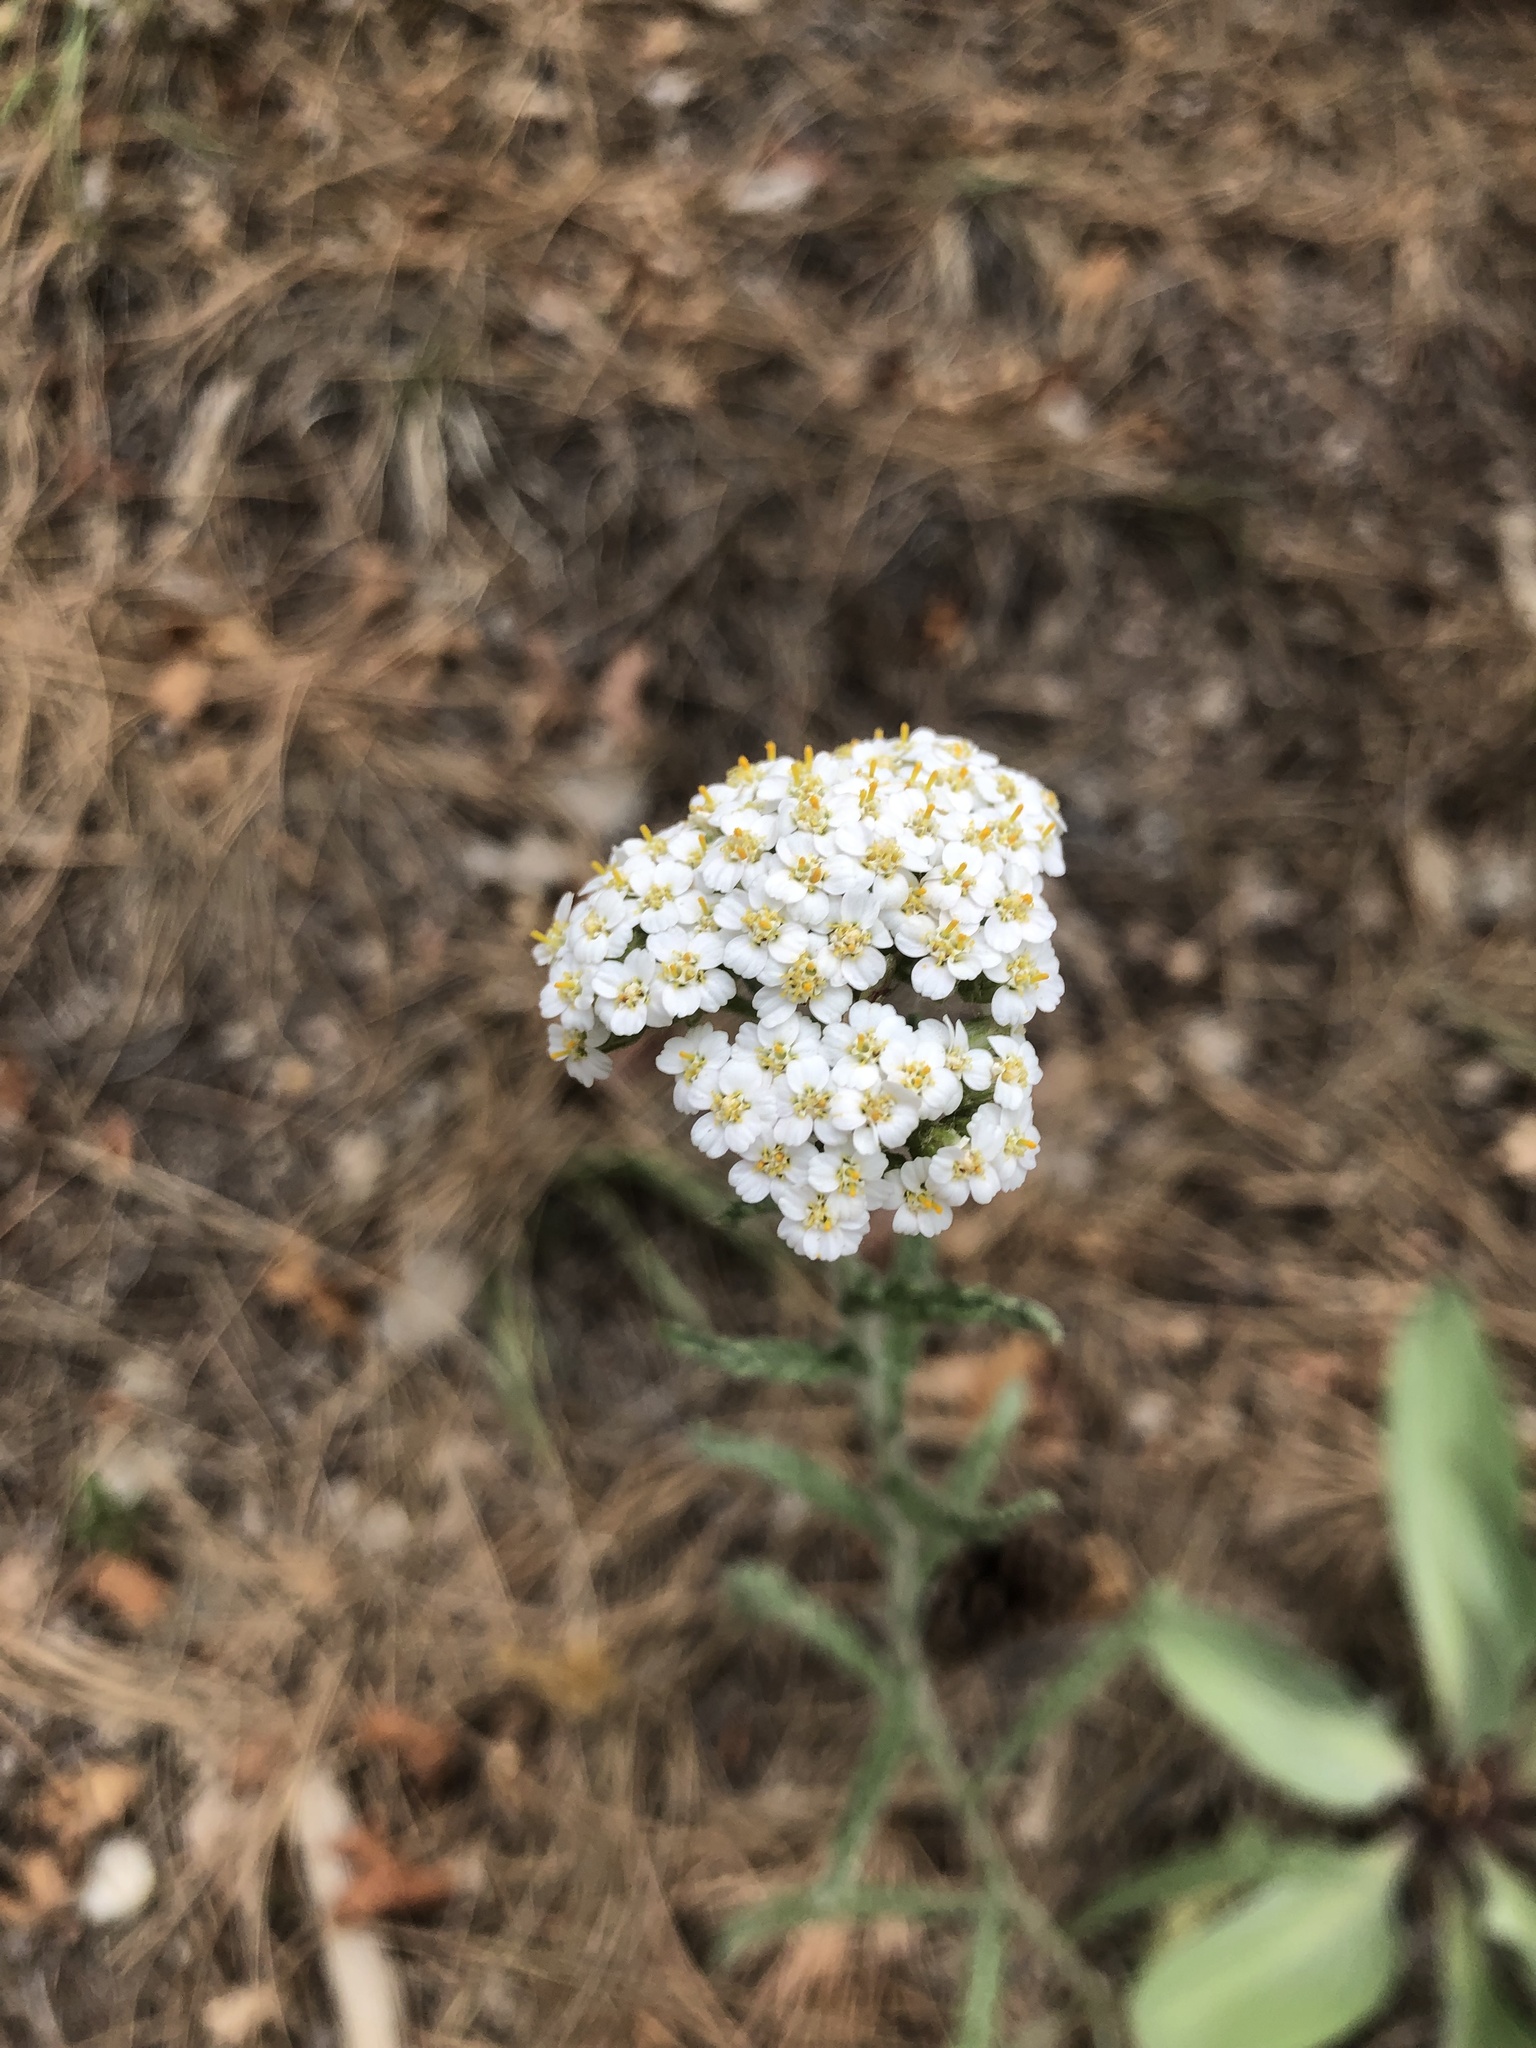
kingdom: Plantae
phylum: Tracheophyta
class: Magnoliopsida
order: Asterales
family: Asteraceae
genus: Achillea
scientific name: Achillea millefolium
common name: Yarrow
